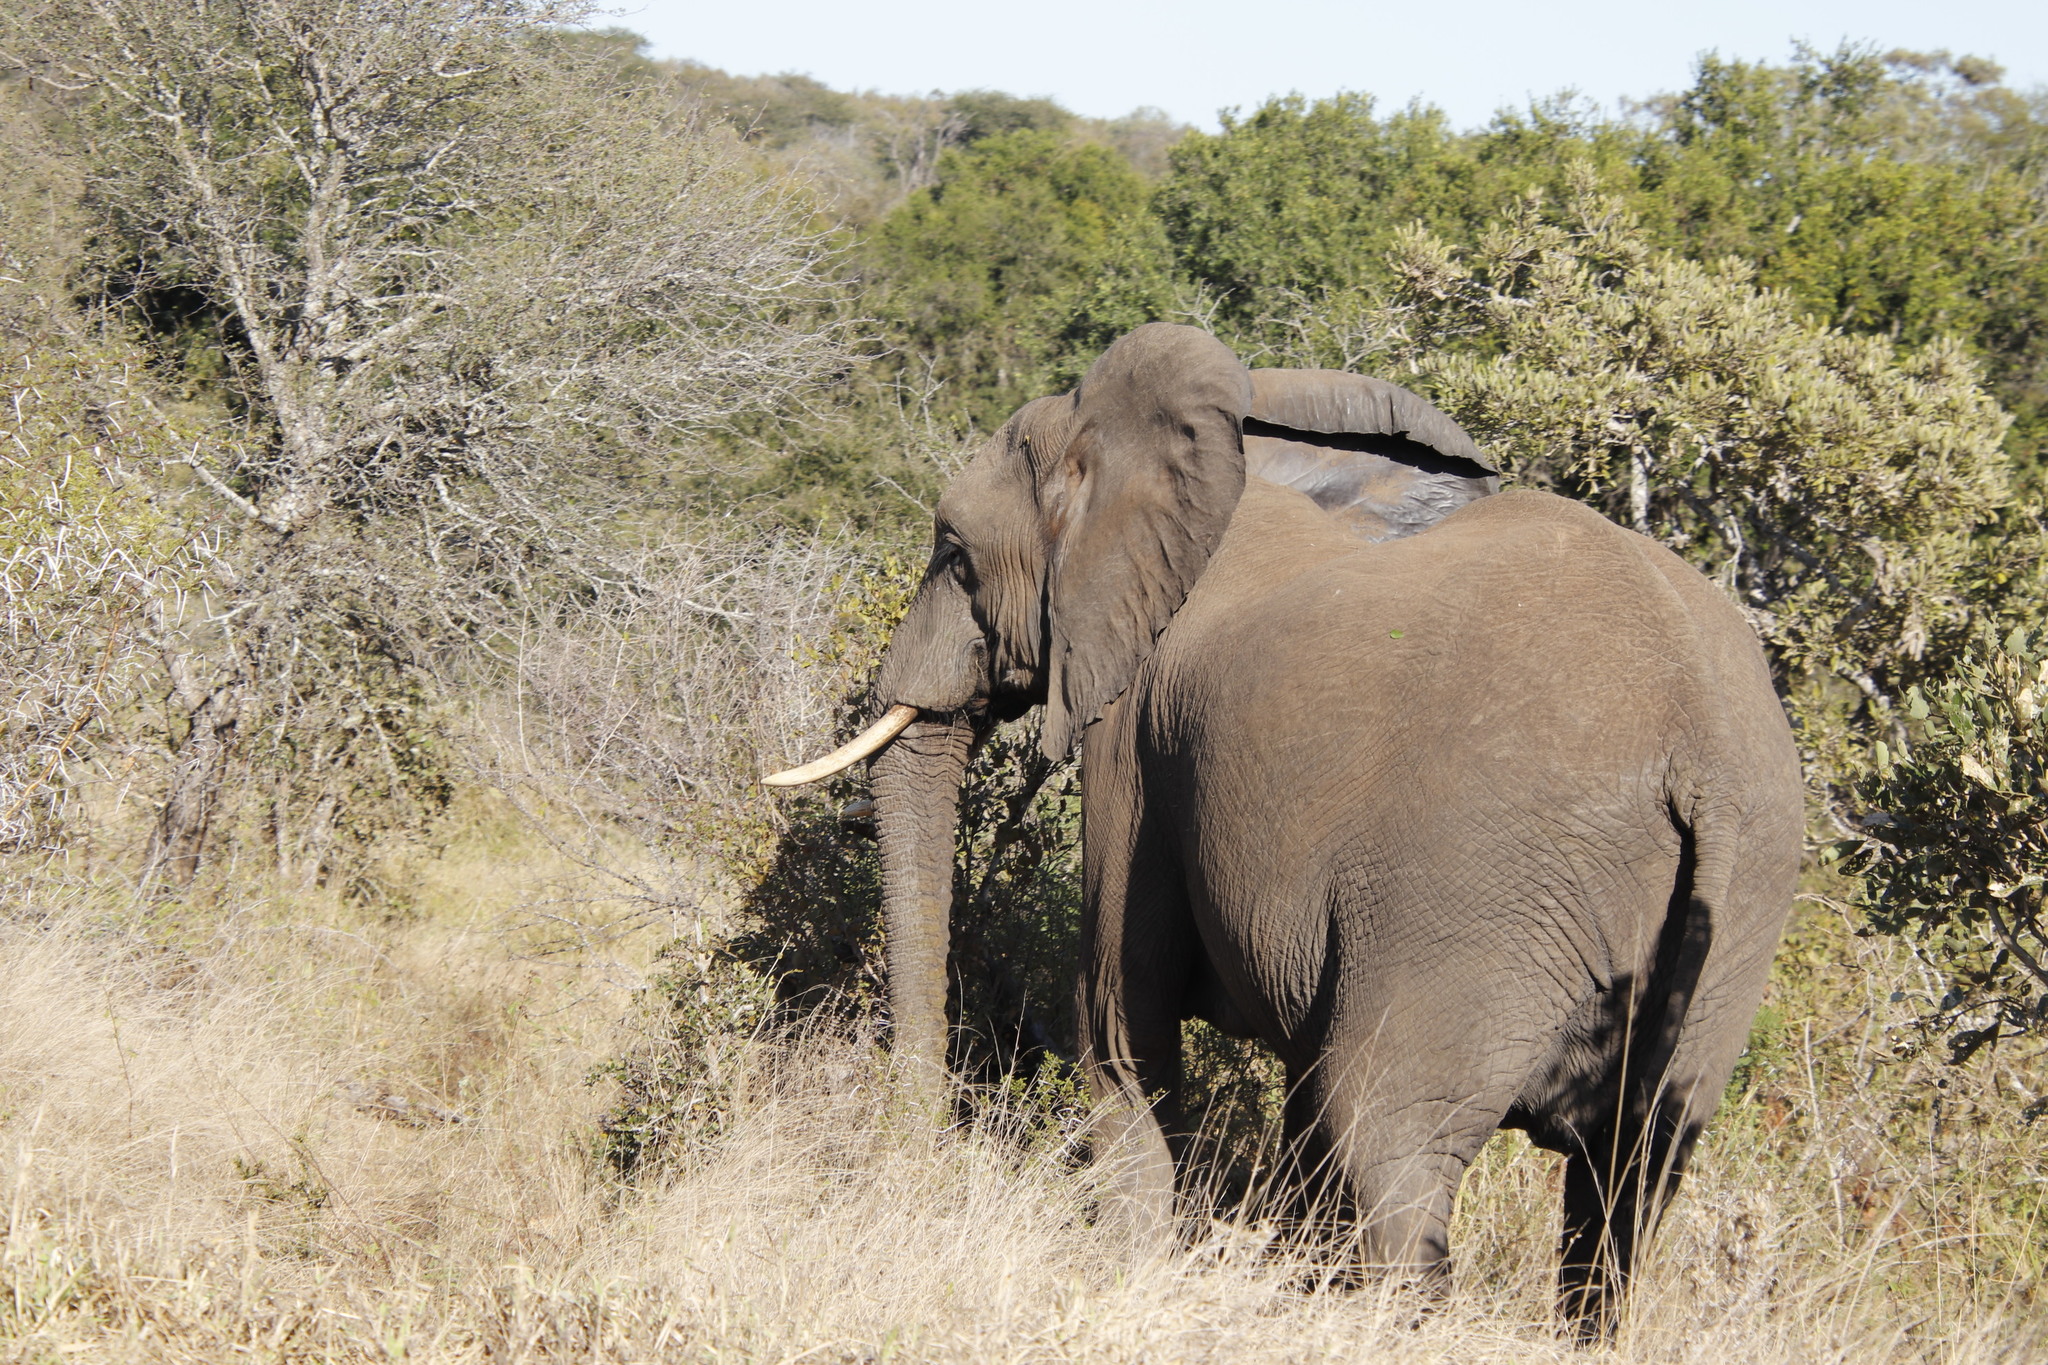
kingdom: Animalia
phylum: Chordata
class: Mammalia
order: Proboscidea
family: Elephantidae
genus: Loxodonta
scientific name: Loxodonta africana
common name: African elephant
